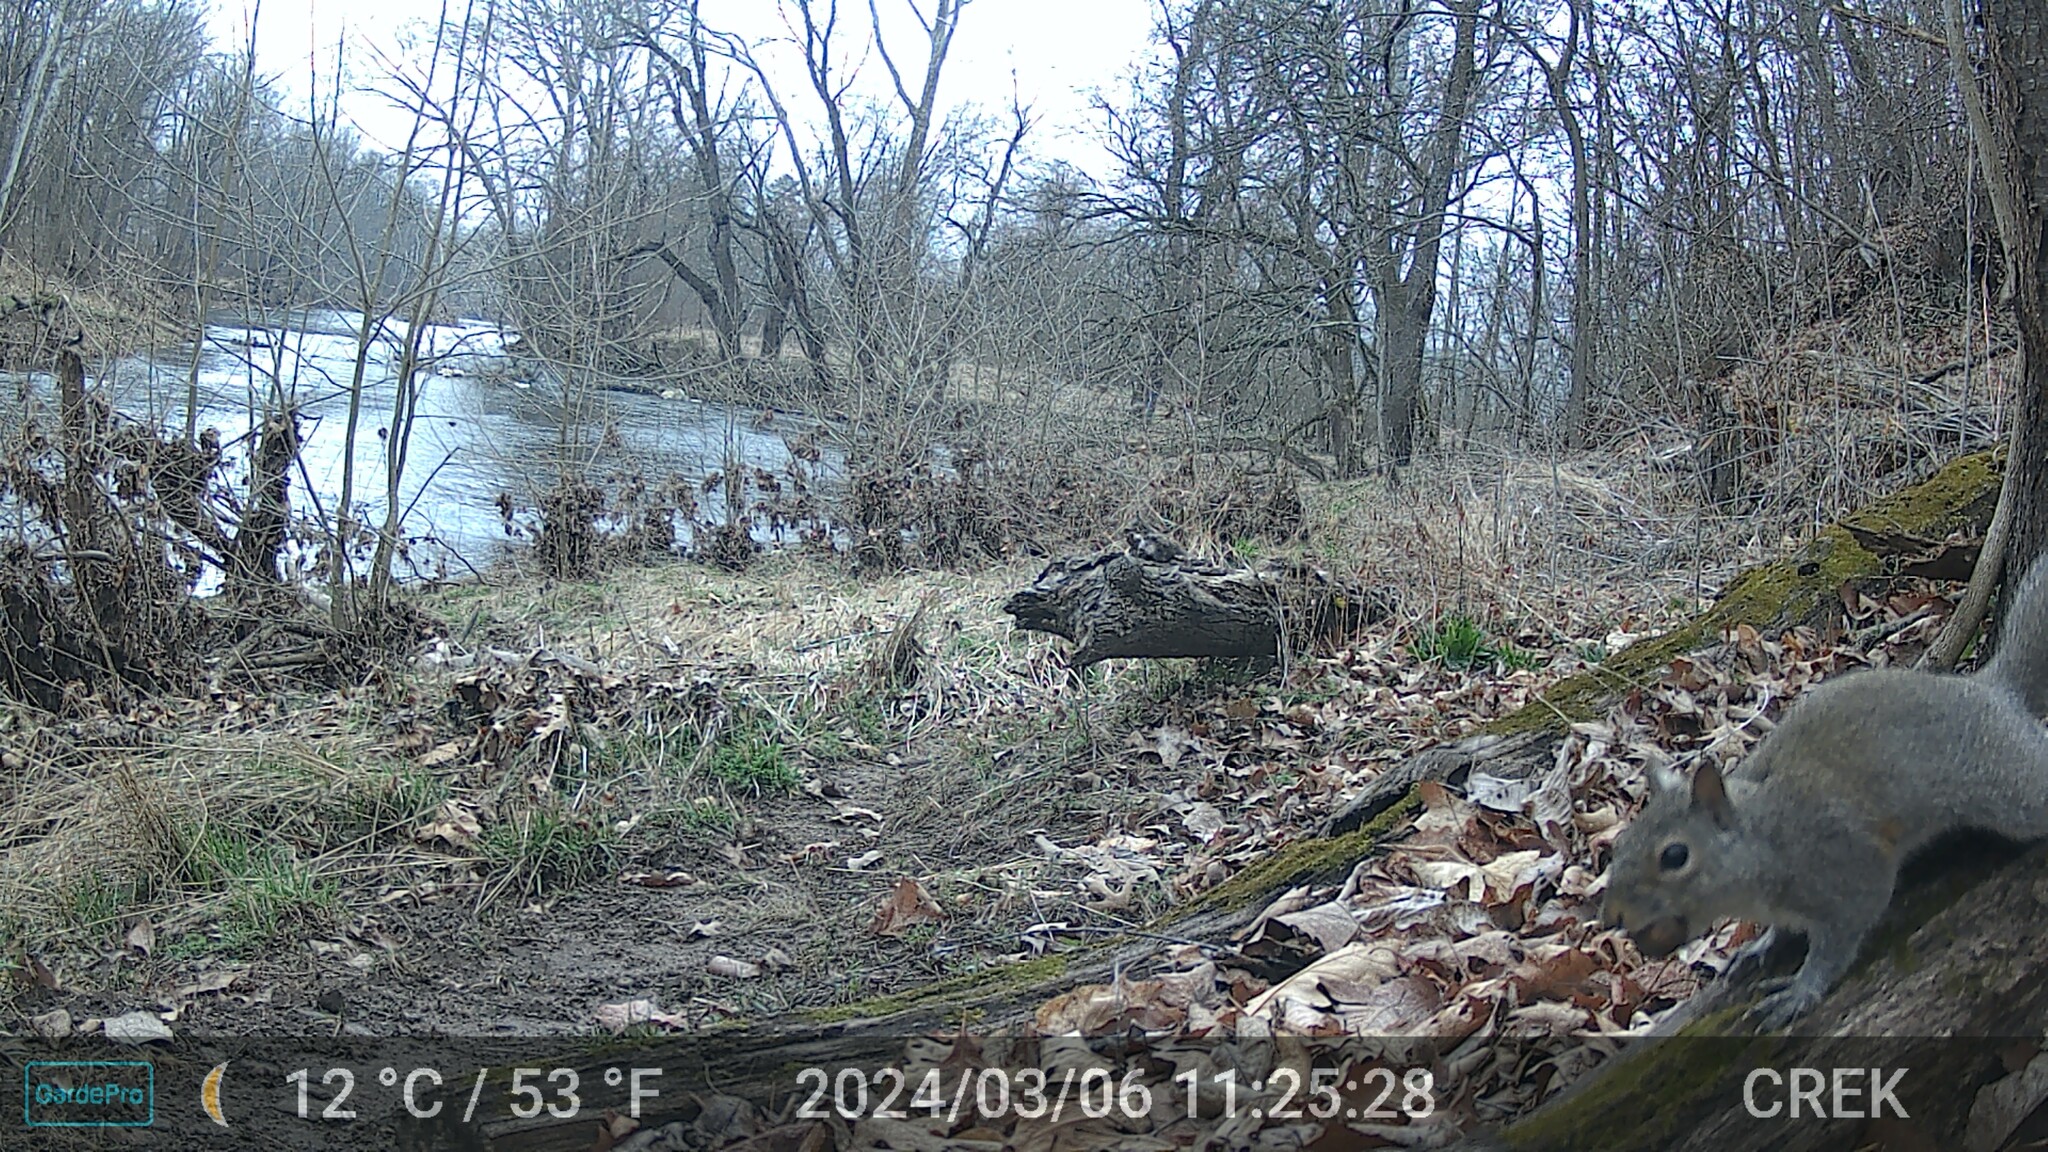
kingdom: Animalia
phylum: Chordata
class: Mammalia
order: Rodentia
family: Sciuridae
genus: Sciurus
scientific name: Sciurus carolinensis
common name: Eastern gray squirrel
